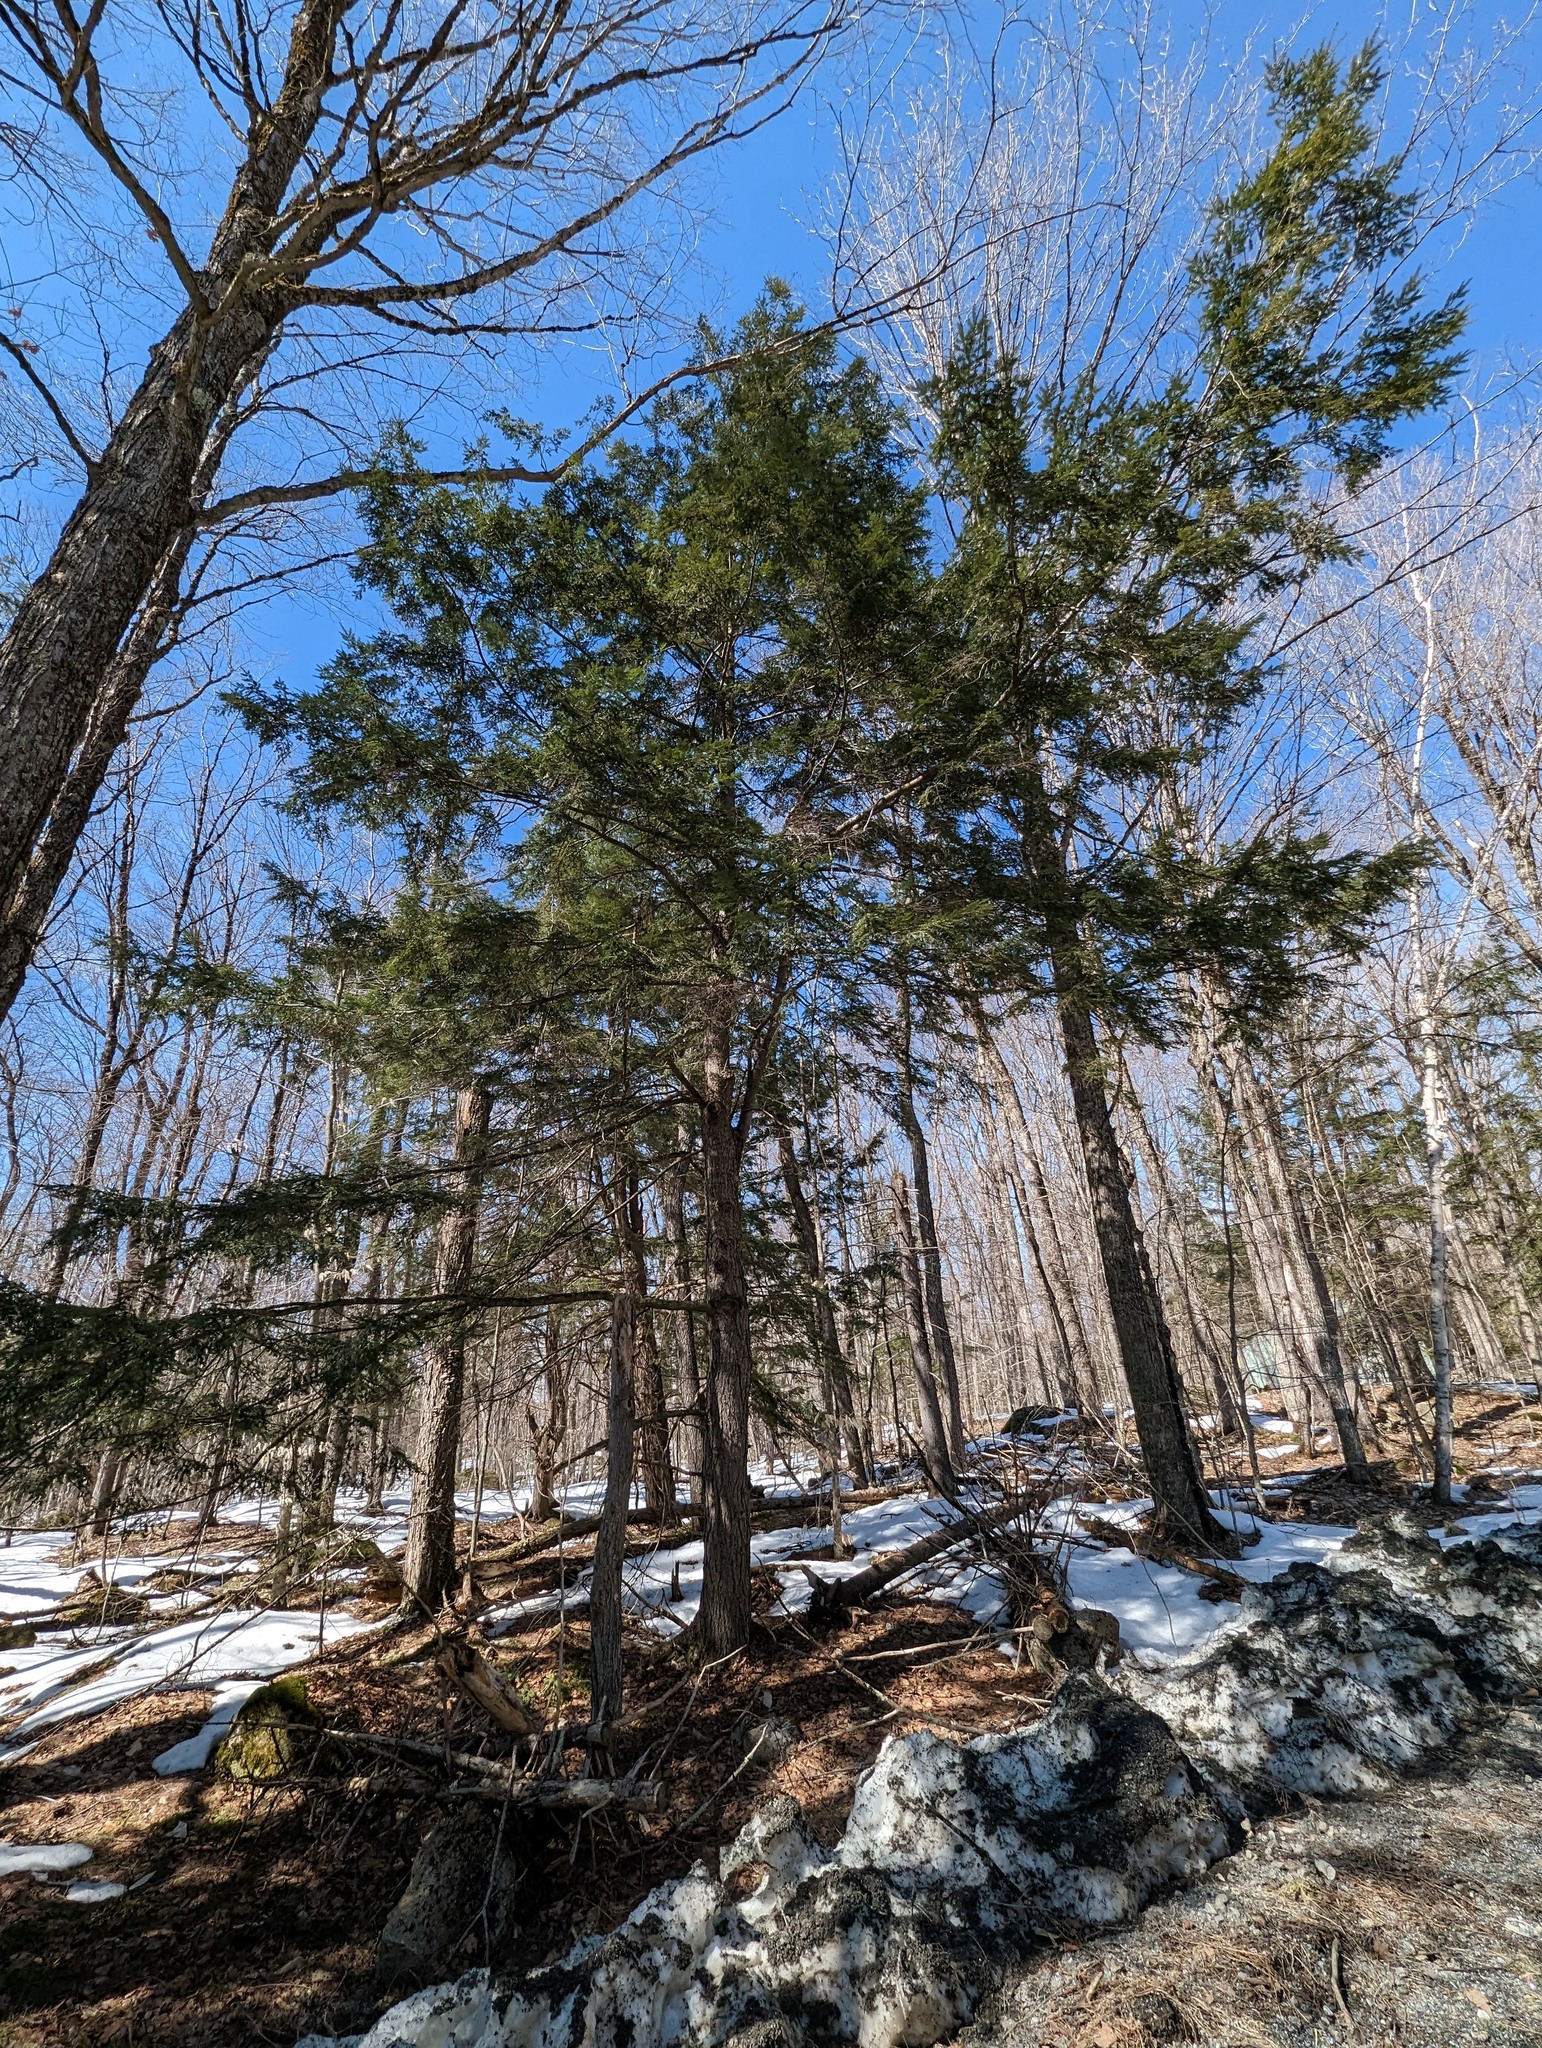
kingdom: Plantae
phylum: Tracheophyta
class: Pinopsida
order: Pinales
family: Pinaceae
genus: Tsuga
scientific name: Tsuga canadensis
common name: Eastern hemlock
